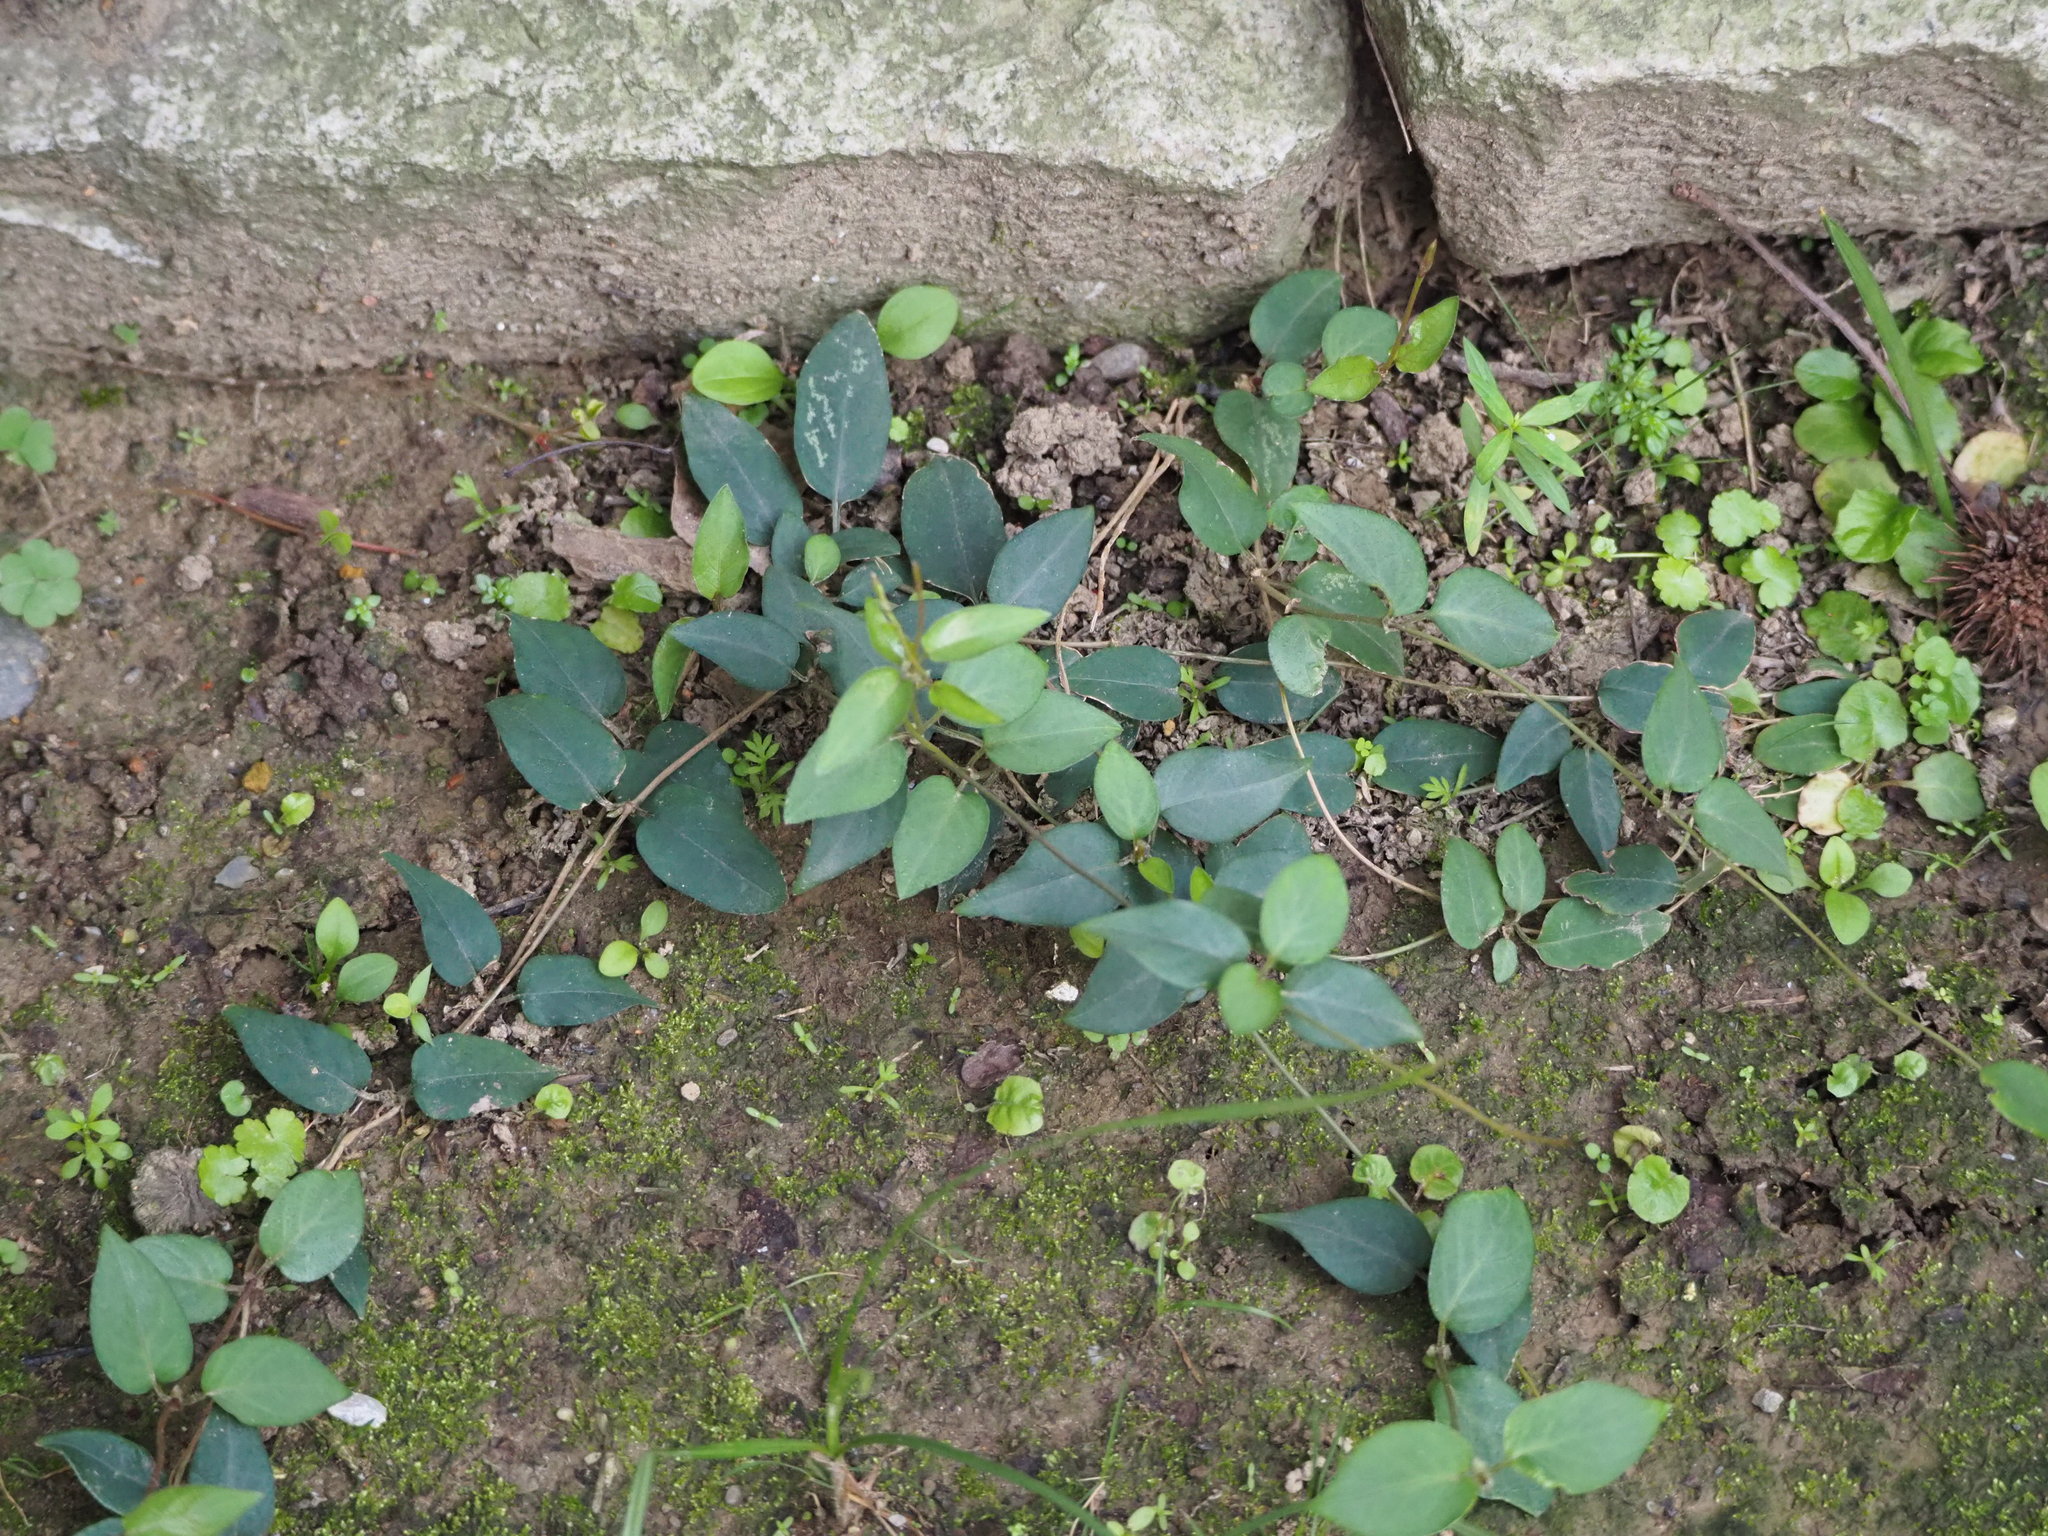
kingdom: Plantae
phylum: Tracheophyta
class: Magnoliopsida
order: Gentianales
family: Rubiaceae
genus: Paederia
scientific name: Paederia foetida
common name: Stinkvine
